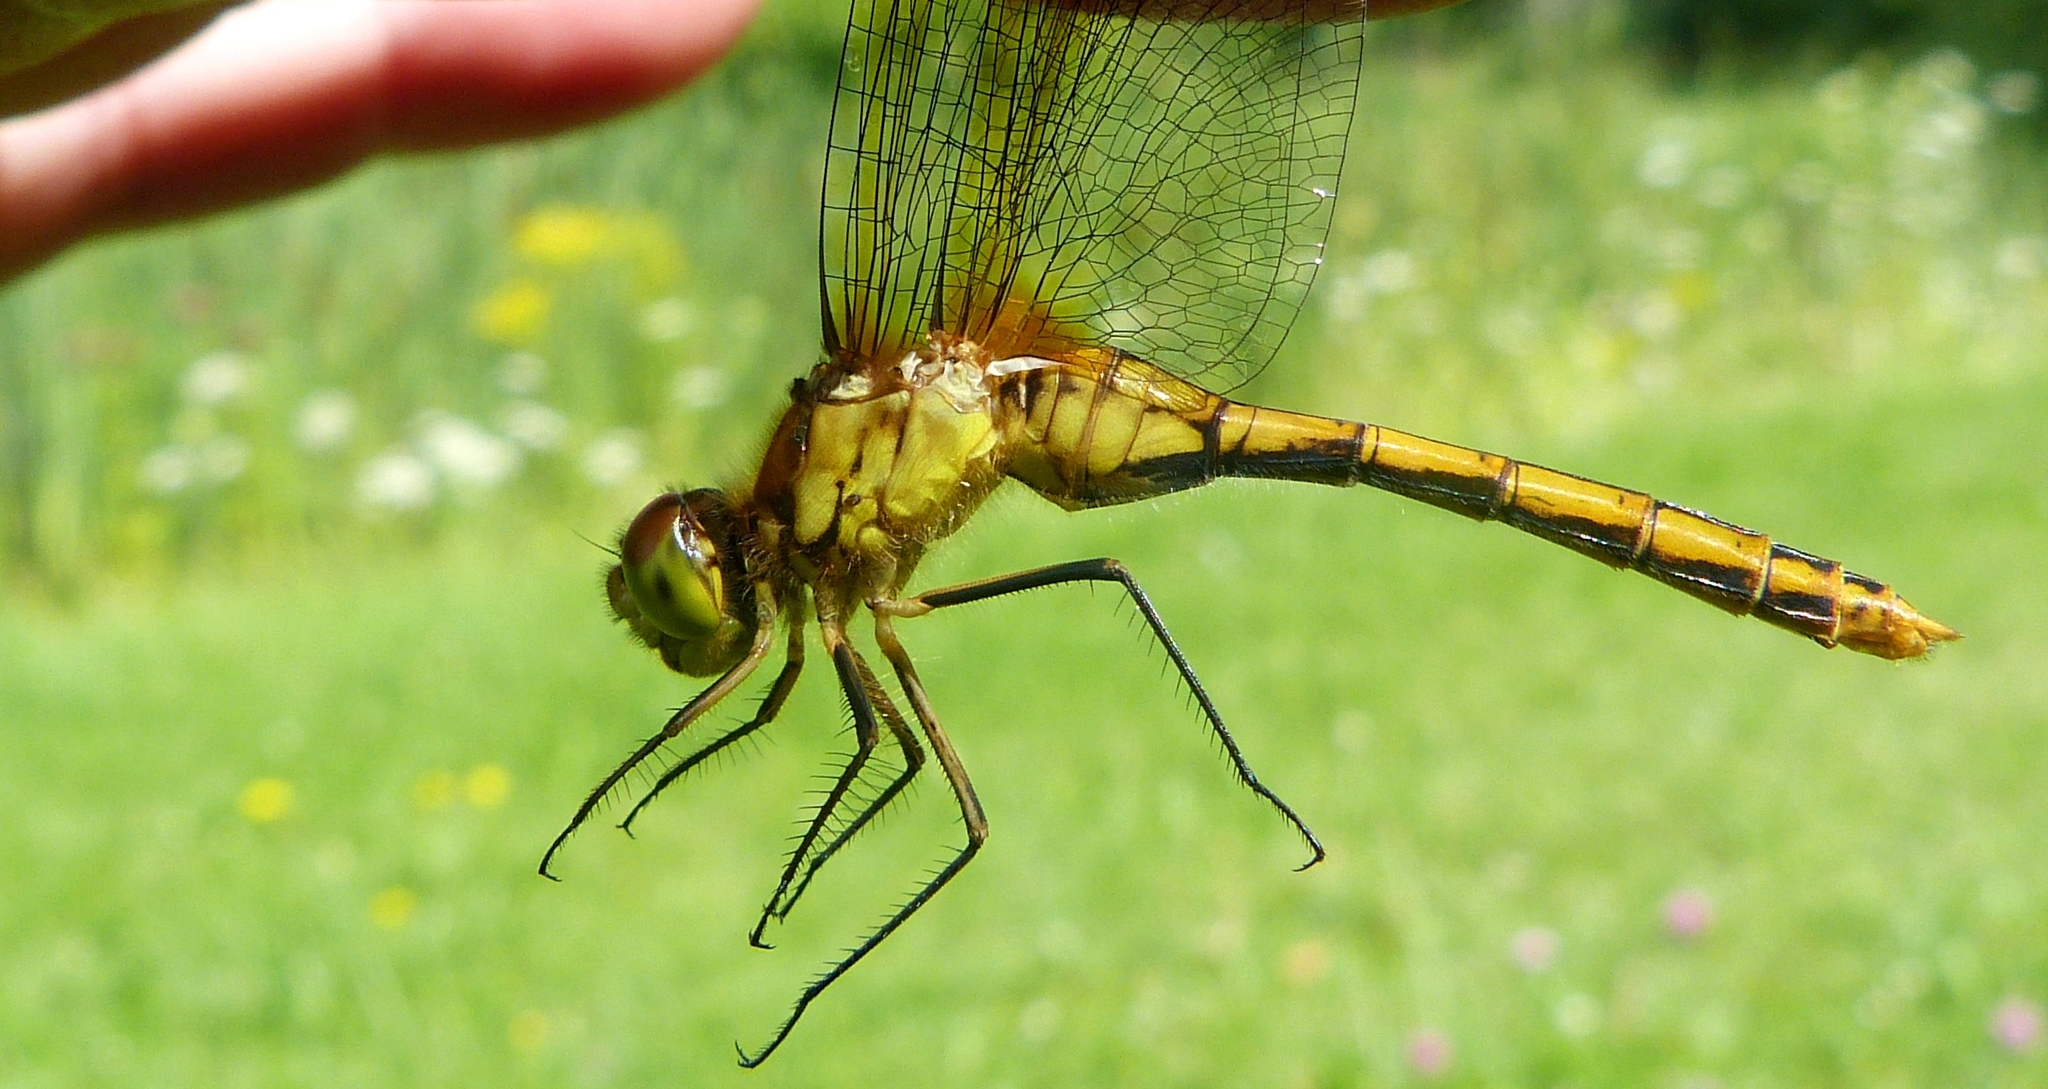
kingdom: Animalia
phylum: Arthropoda
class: Insecta
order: Odonata
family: Libellulidae
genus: Sympetrum
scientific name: Sympetrum costiferum
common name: Saffron-winged meadowhawk
